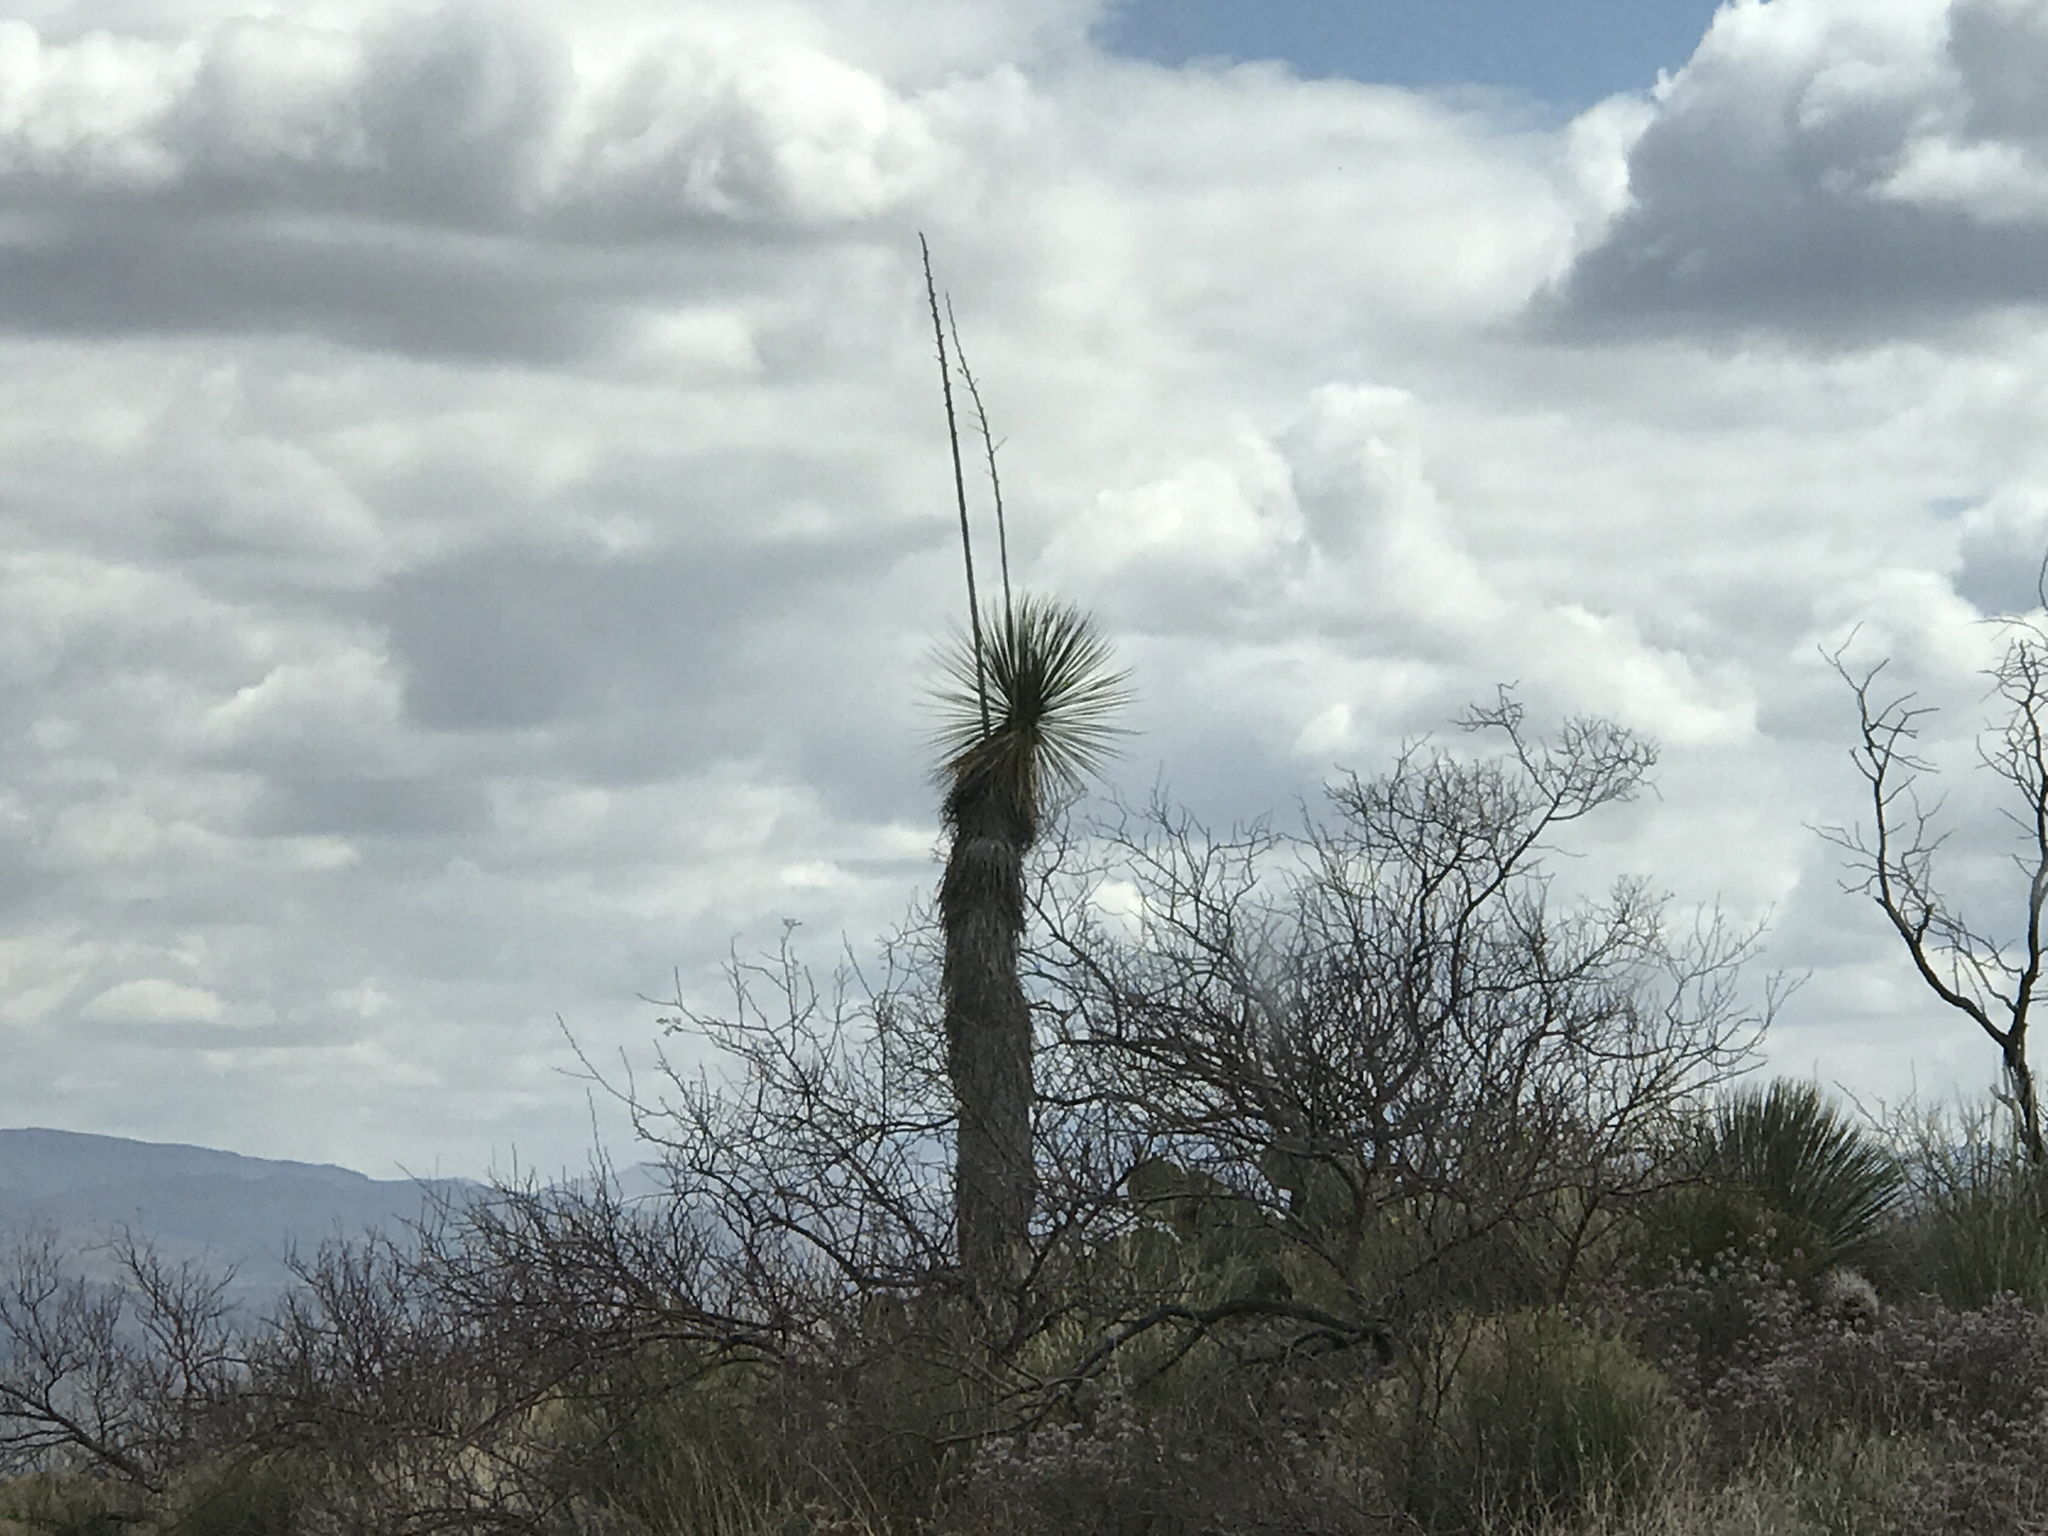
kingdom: Plantae
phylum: Tracheophyta
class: Liliopsida
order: Asparagales
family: Asparagaceae
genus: Yucca
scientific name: Yucca elata
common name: Palmella
